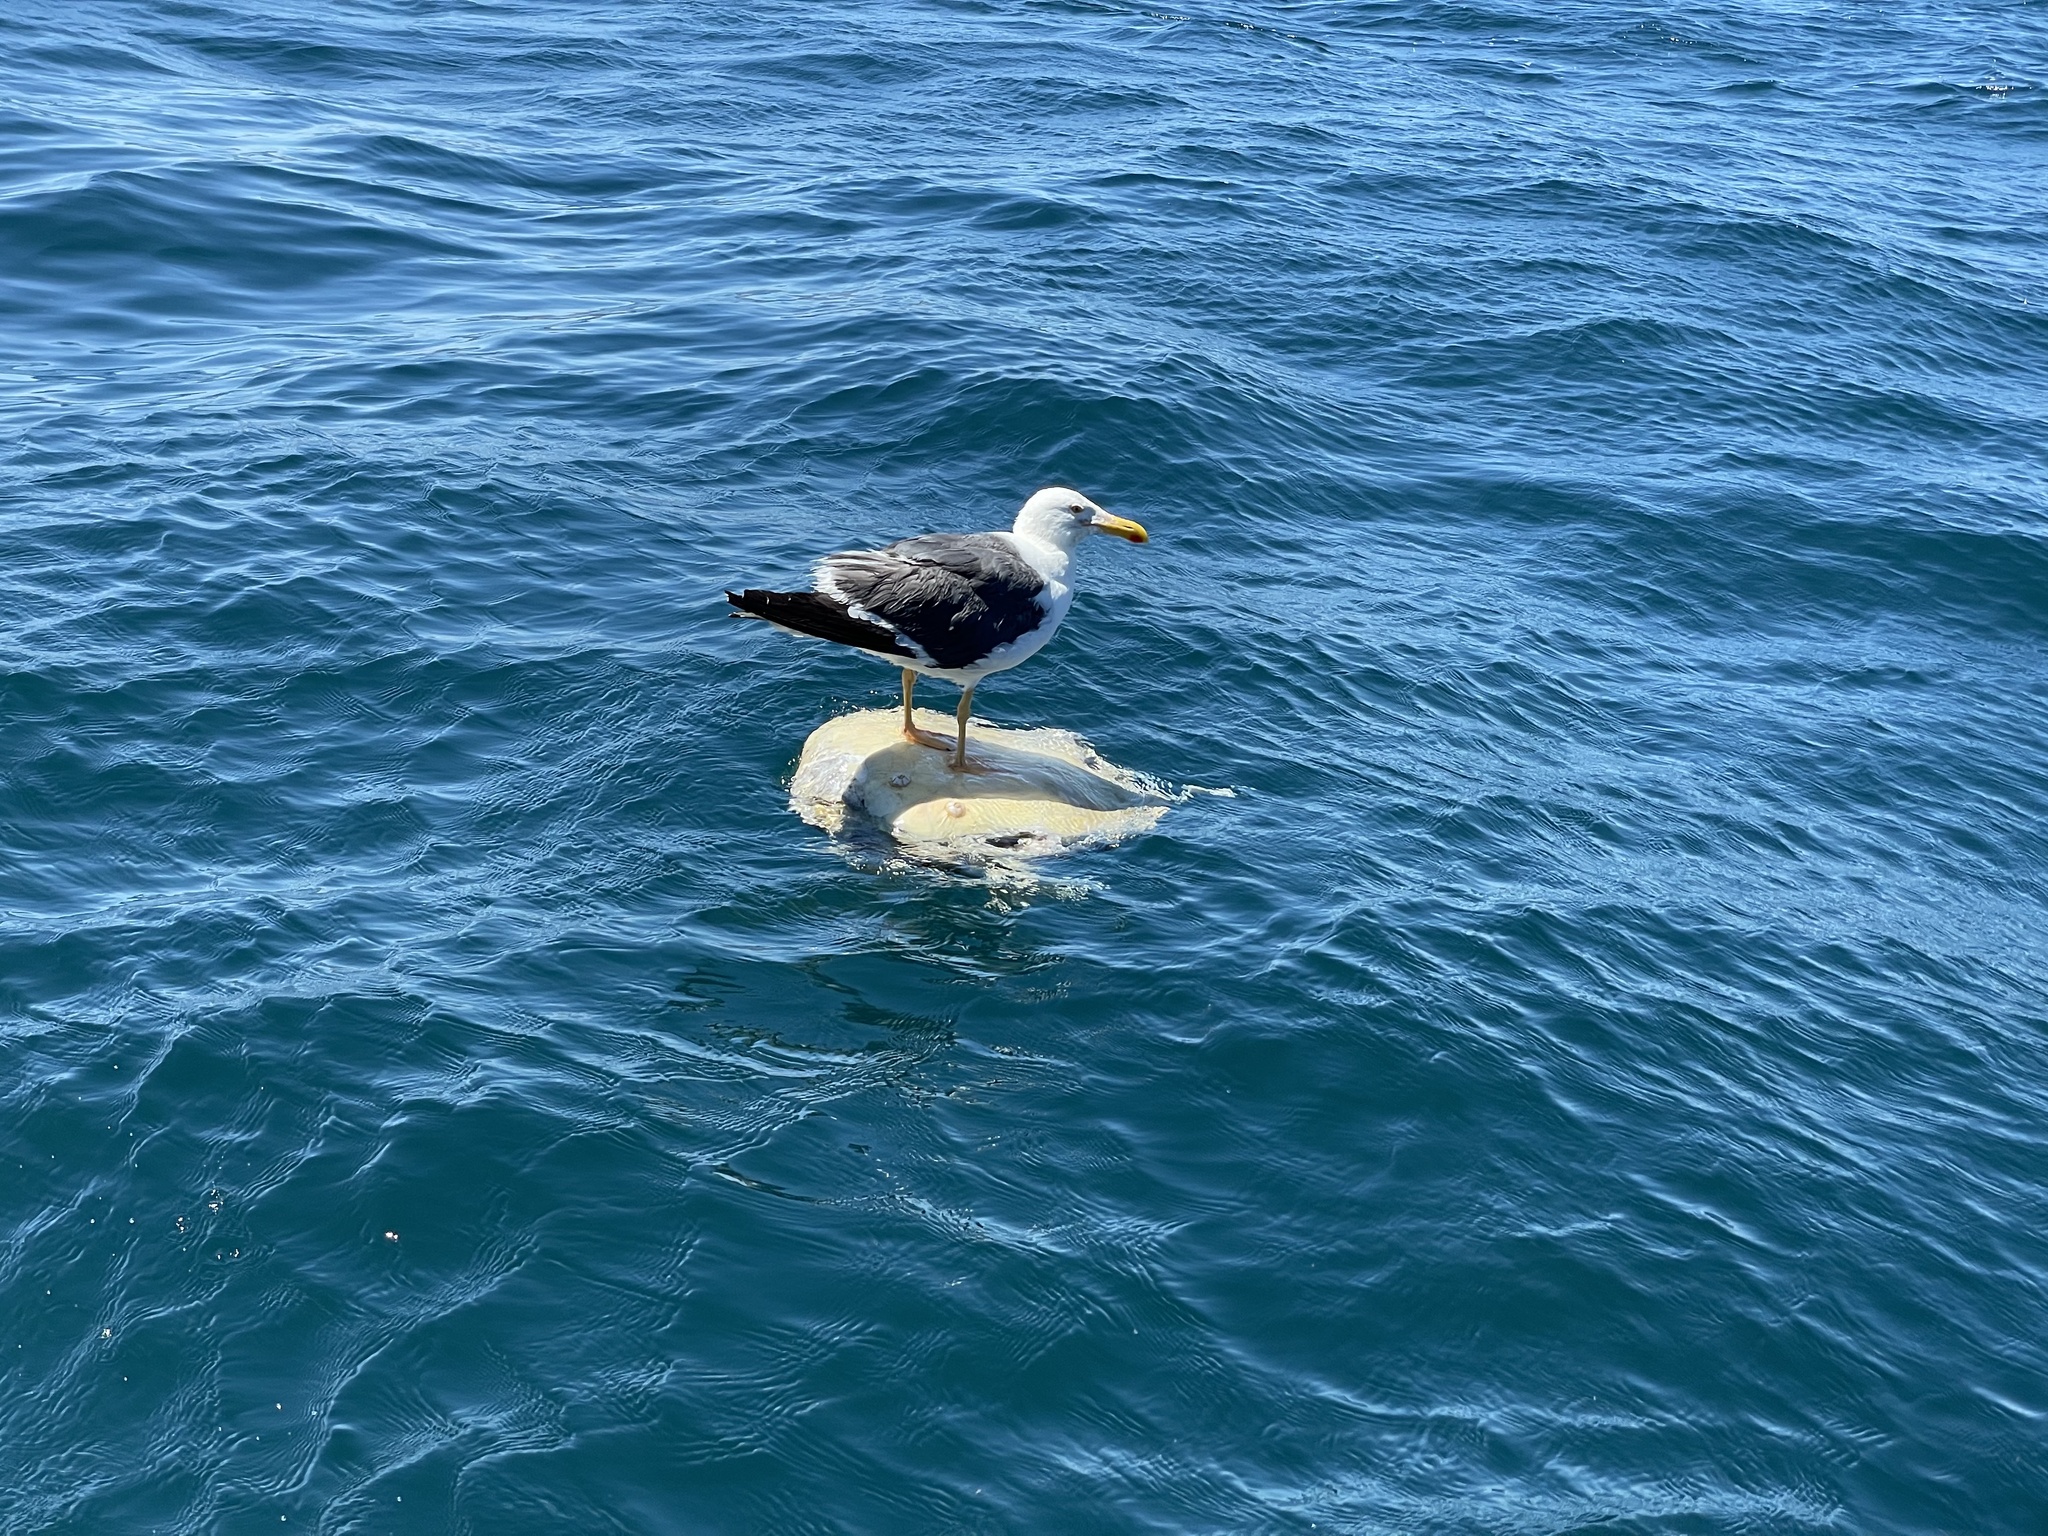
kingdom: Animalia
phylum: Chordata
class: Aves
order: Charadriiformes
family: Laridae
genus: Larus
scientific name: Larus livens
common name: Yellow-footed gull
